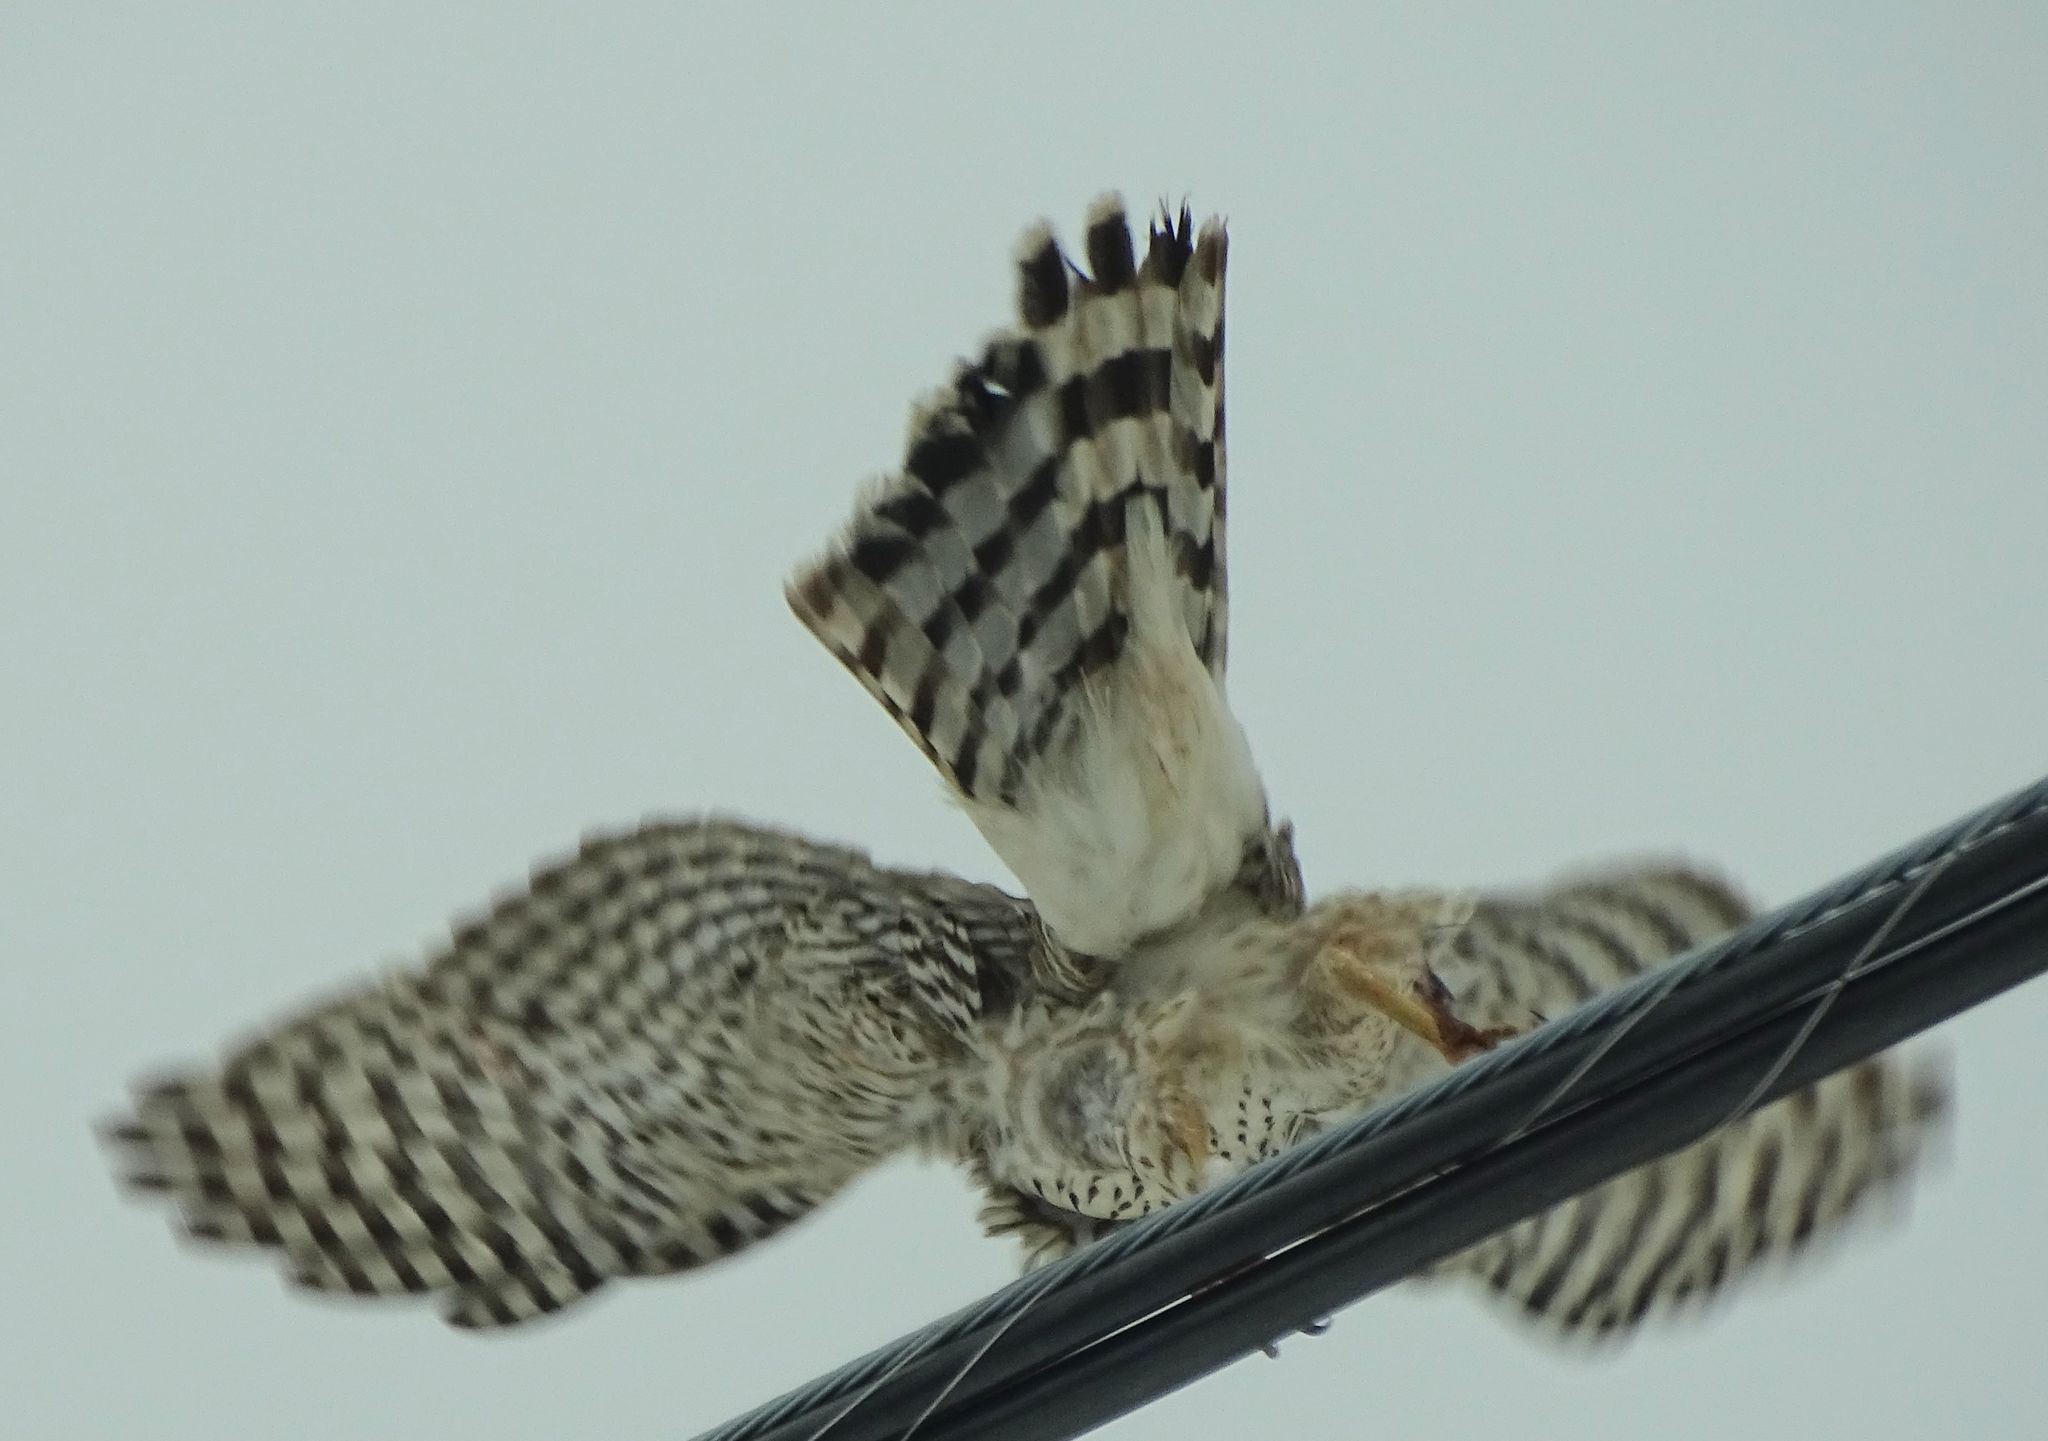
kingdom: Animalia
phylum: Chordata
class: Aves
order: Accipitriformes
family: Accipitridae
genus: Accipiter
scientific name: Accipiter cooperii
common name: Cooper's hawk
